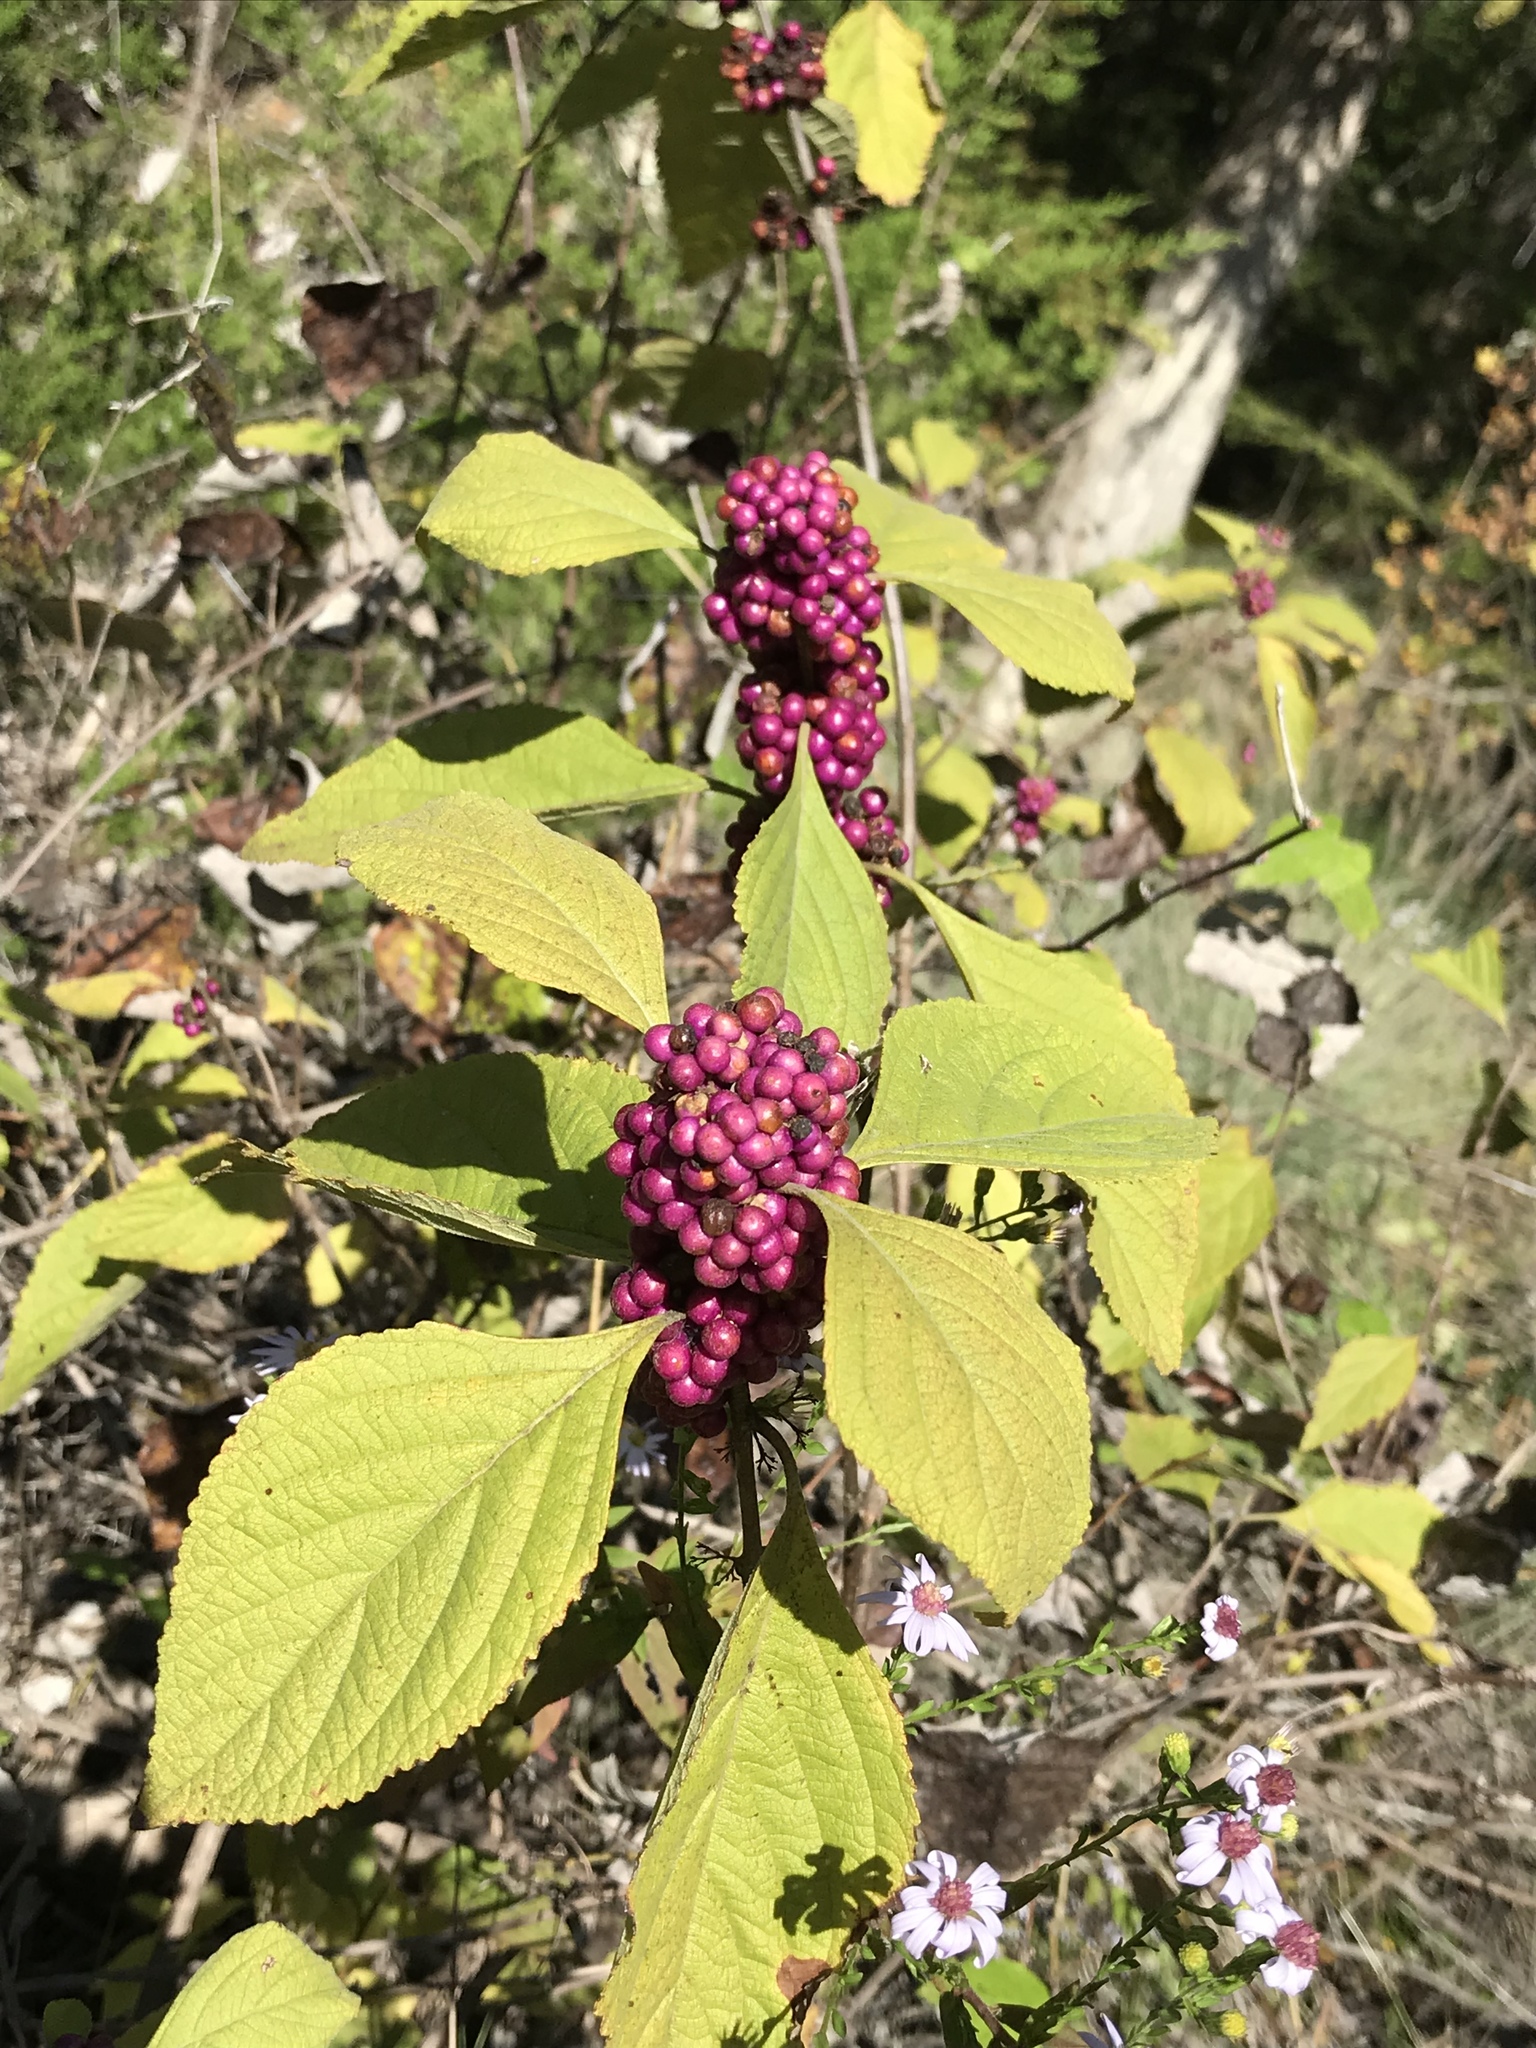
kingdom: Plantae
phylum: Tracheophyta
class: Magnoliopsida
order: Lamiales
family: Lamiaceae
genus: Callicarpa
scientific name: Callicarpa americana
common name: American beautyberry
